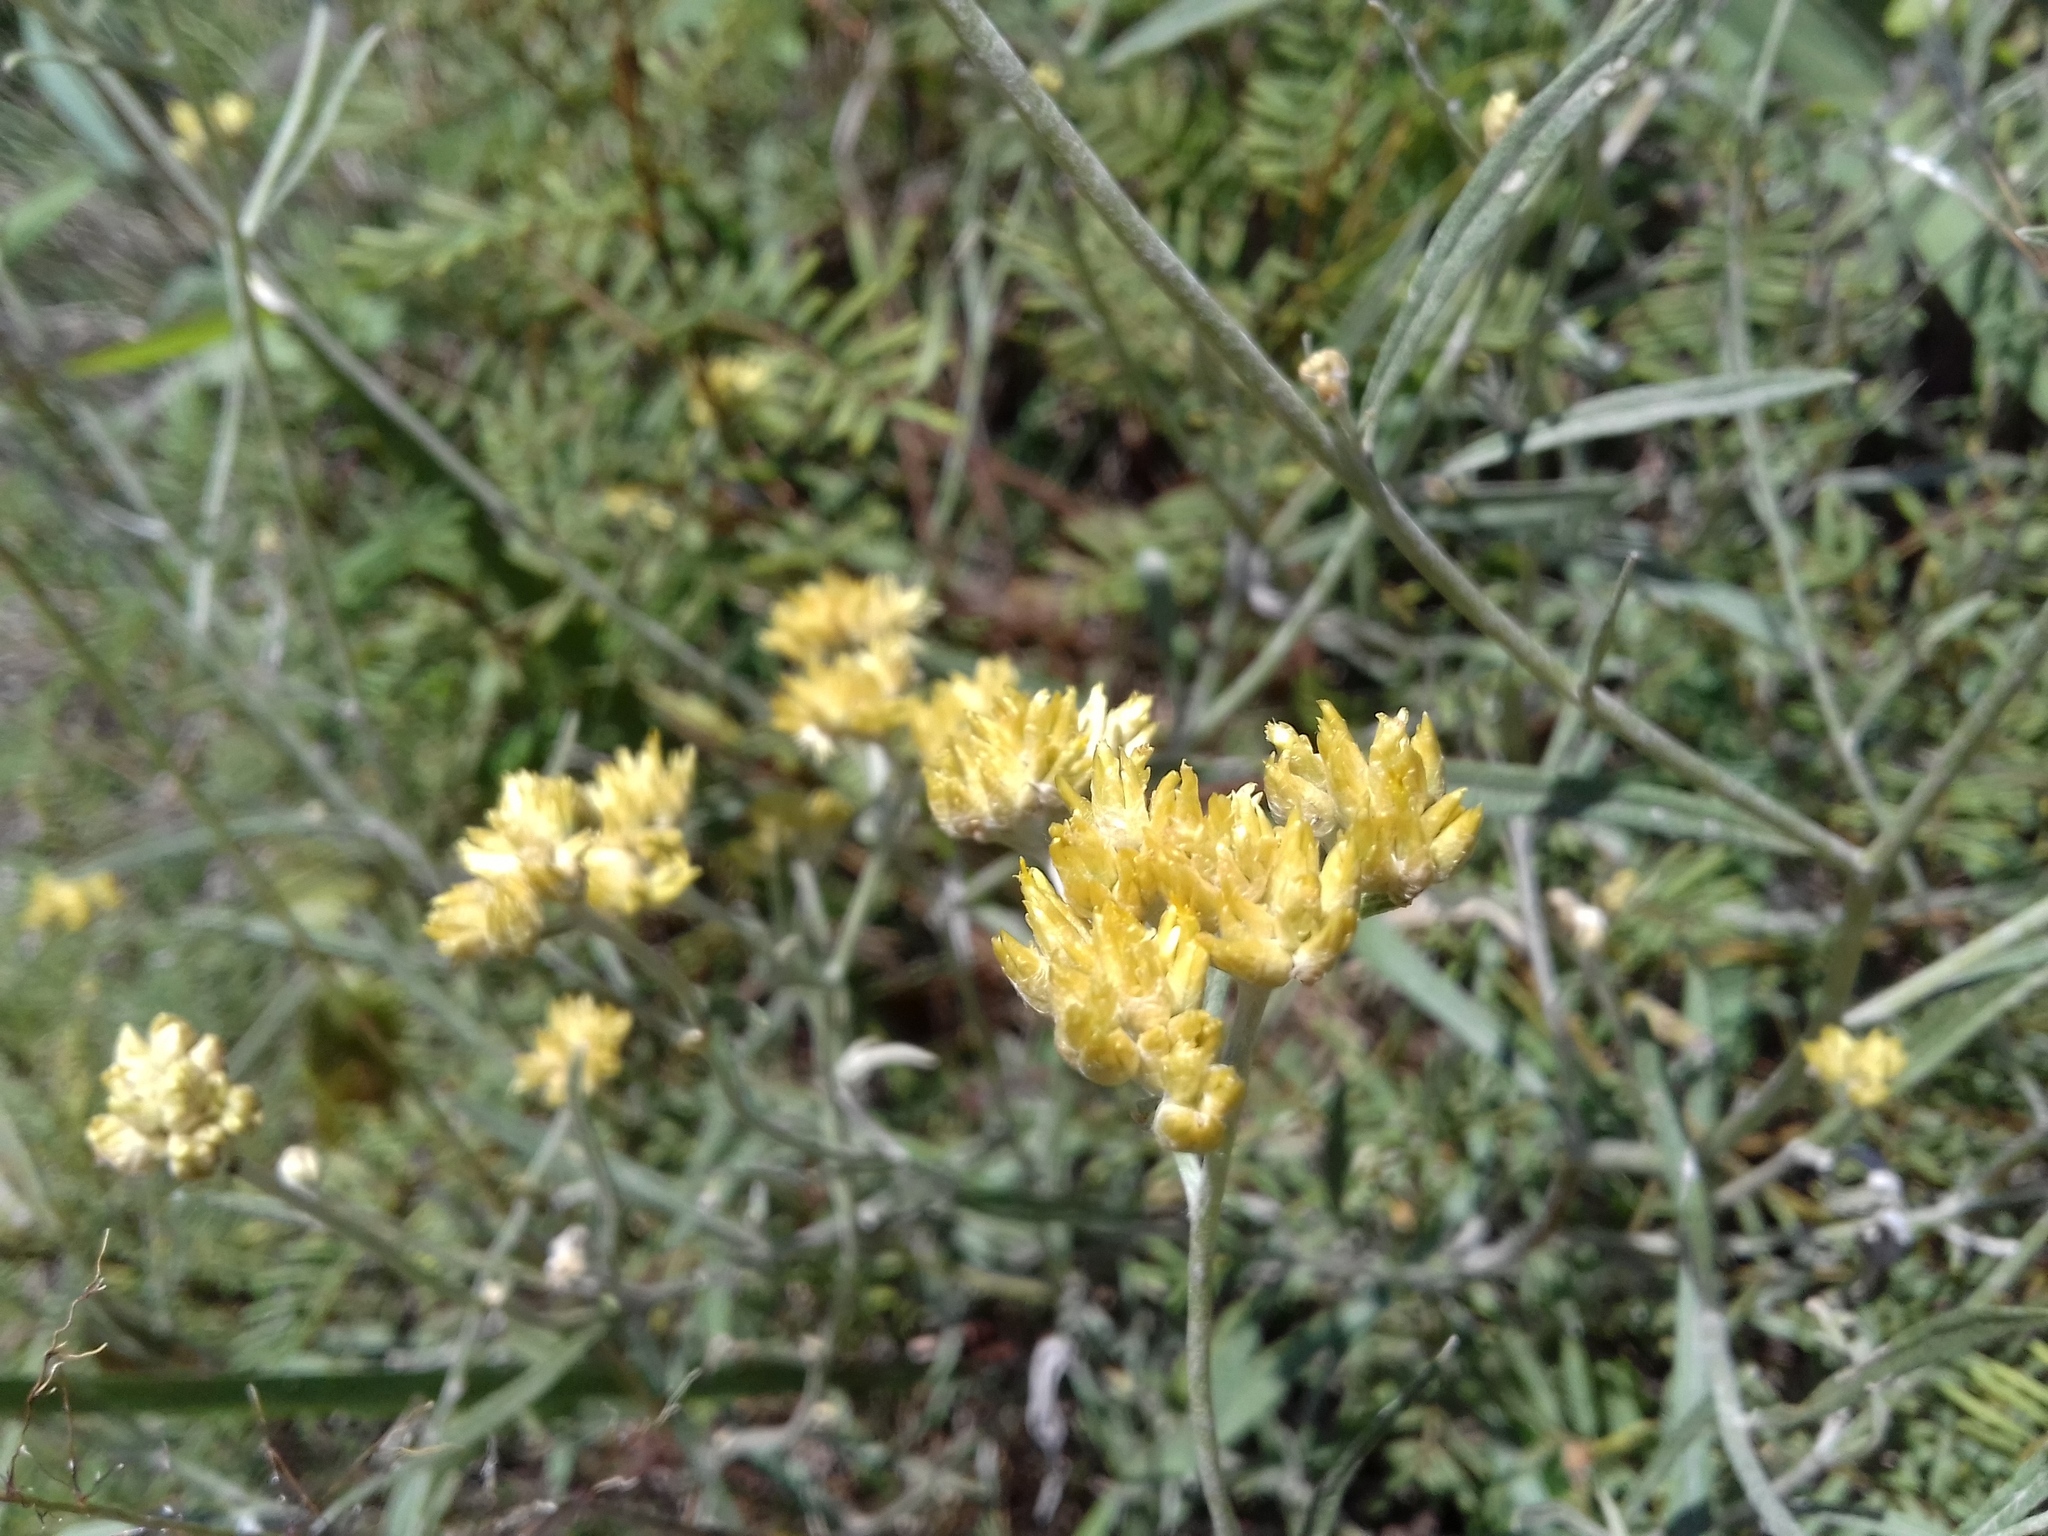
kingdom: Plantae
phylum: Tracheophyta
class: Magnoliopsida
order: Asterales
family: Asteraceae
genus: Achyrocline
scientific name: Achyrocline satureioides
